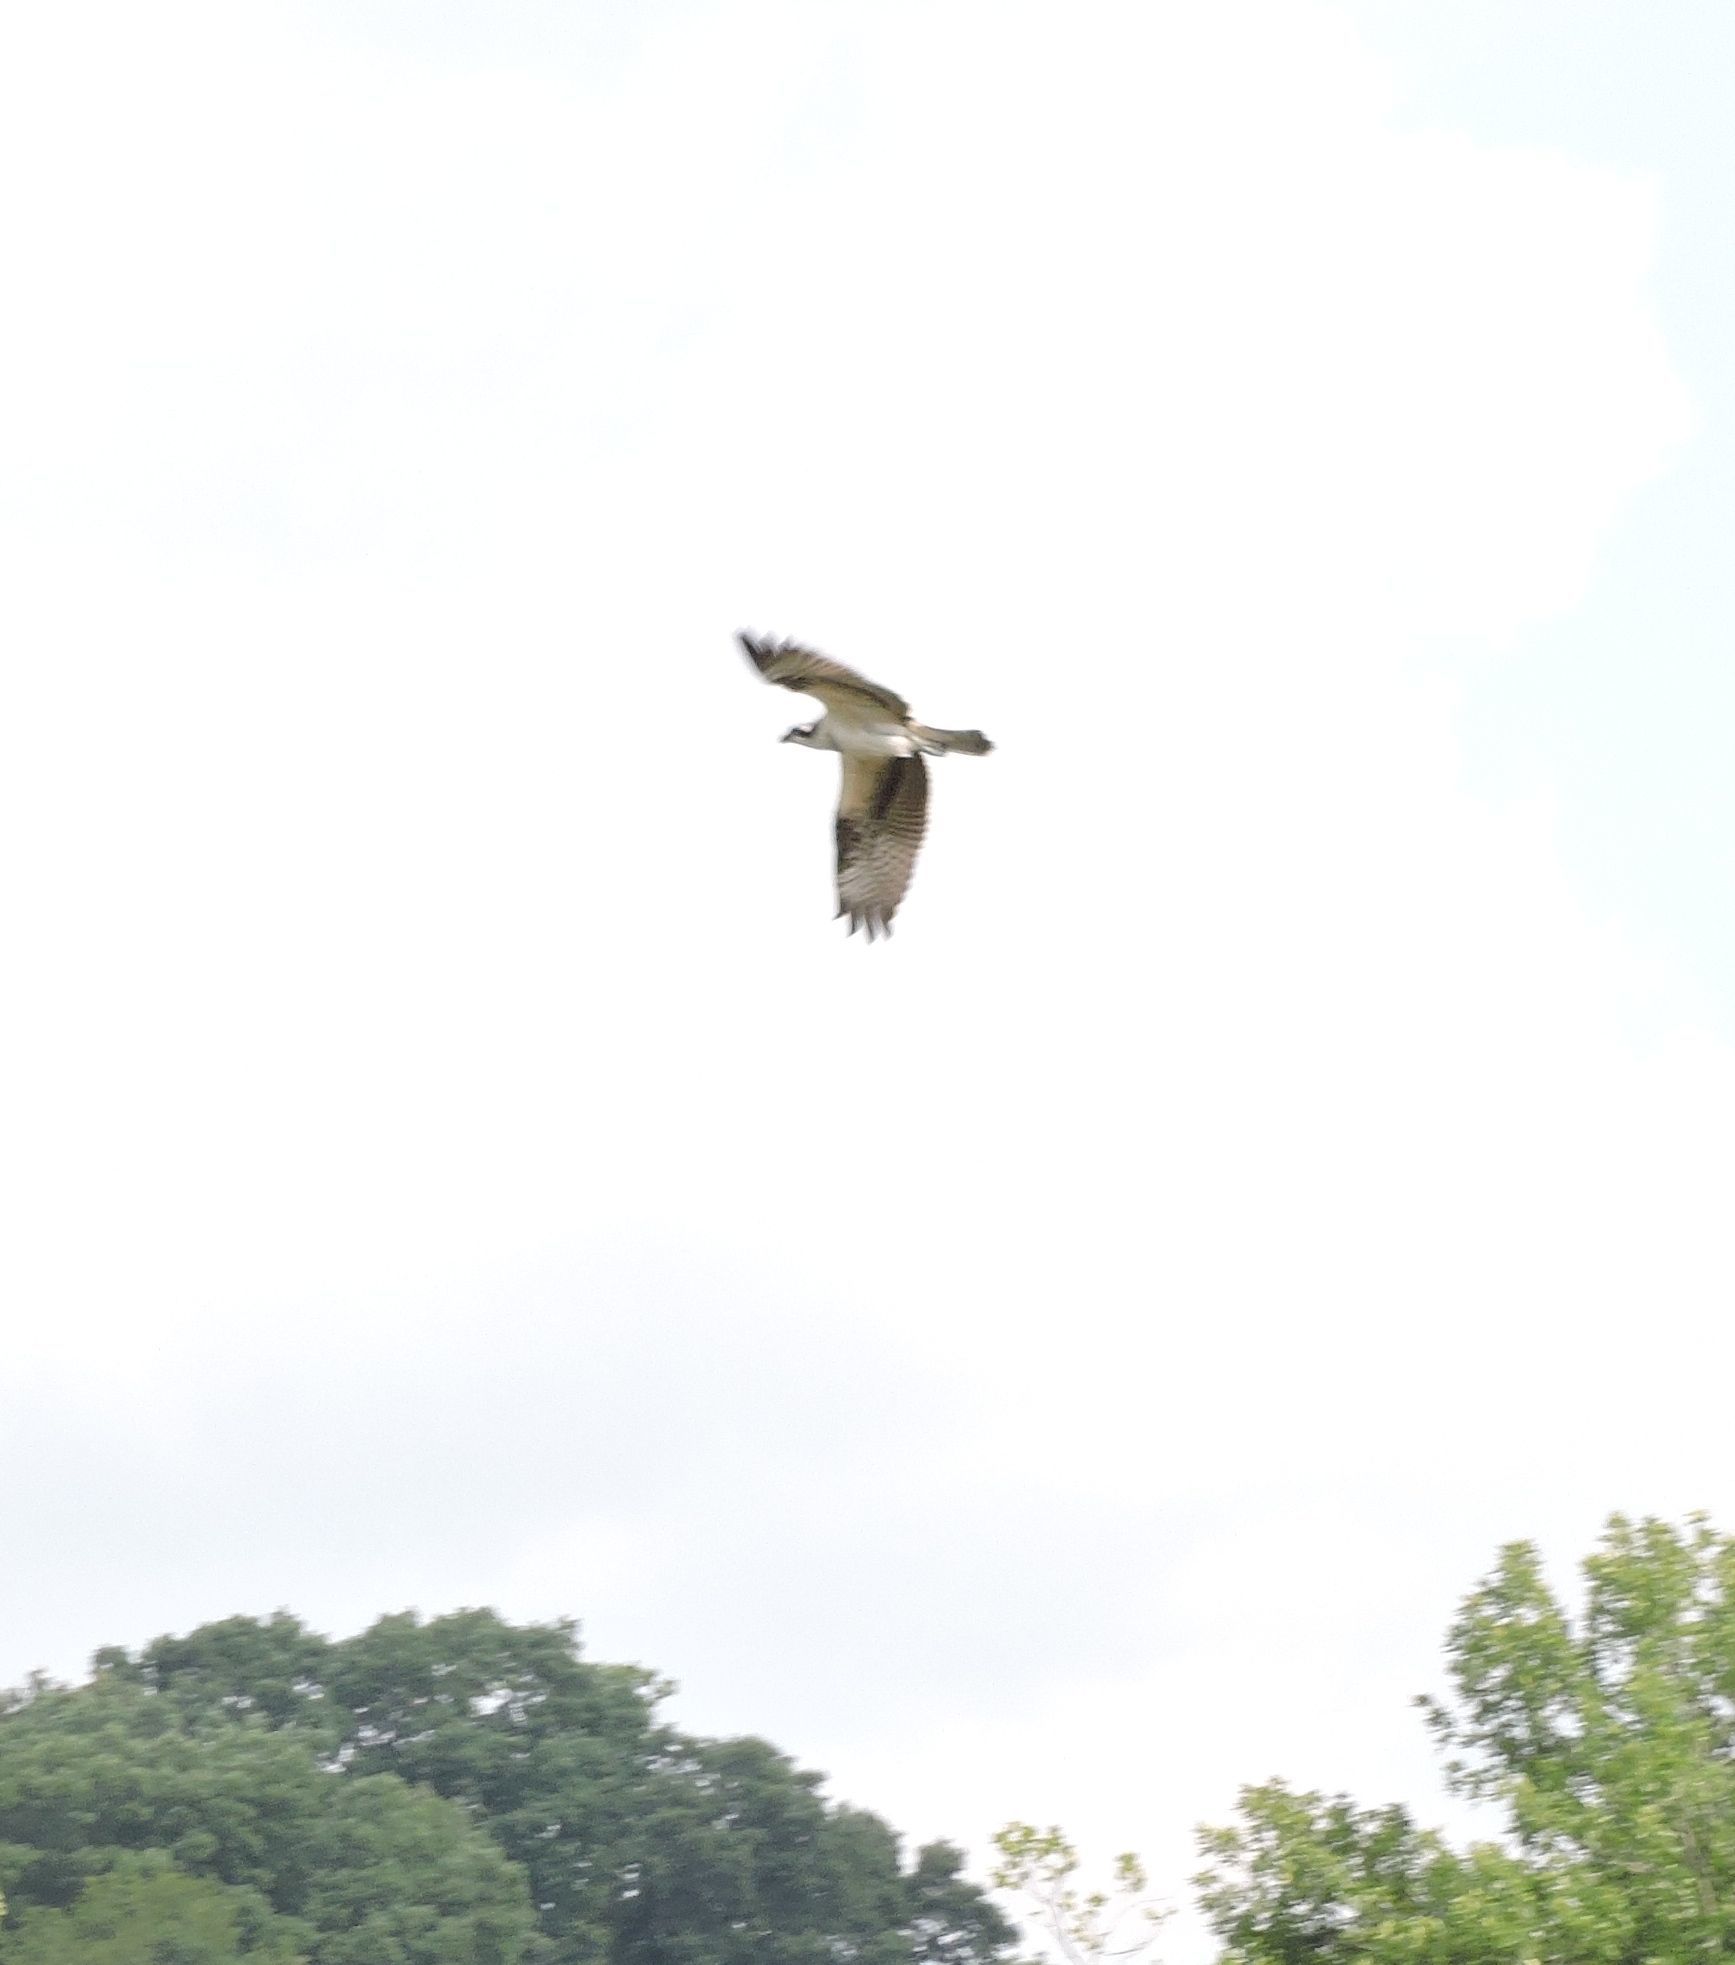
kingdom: Animalia
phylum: Chordata
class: Aves
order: Accipitriformes
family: Pandionidae
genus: Pandion
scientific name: Pandion haliaetus
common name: Osprey
